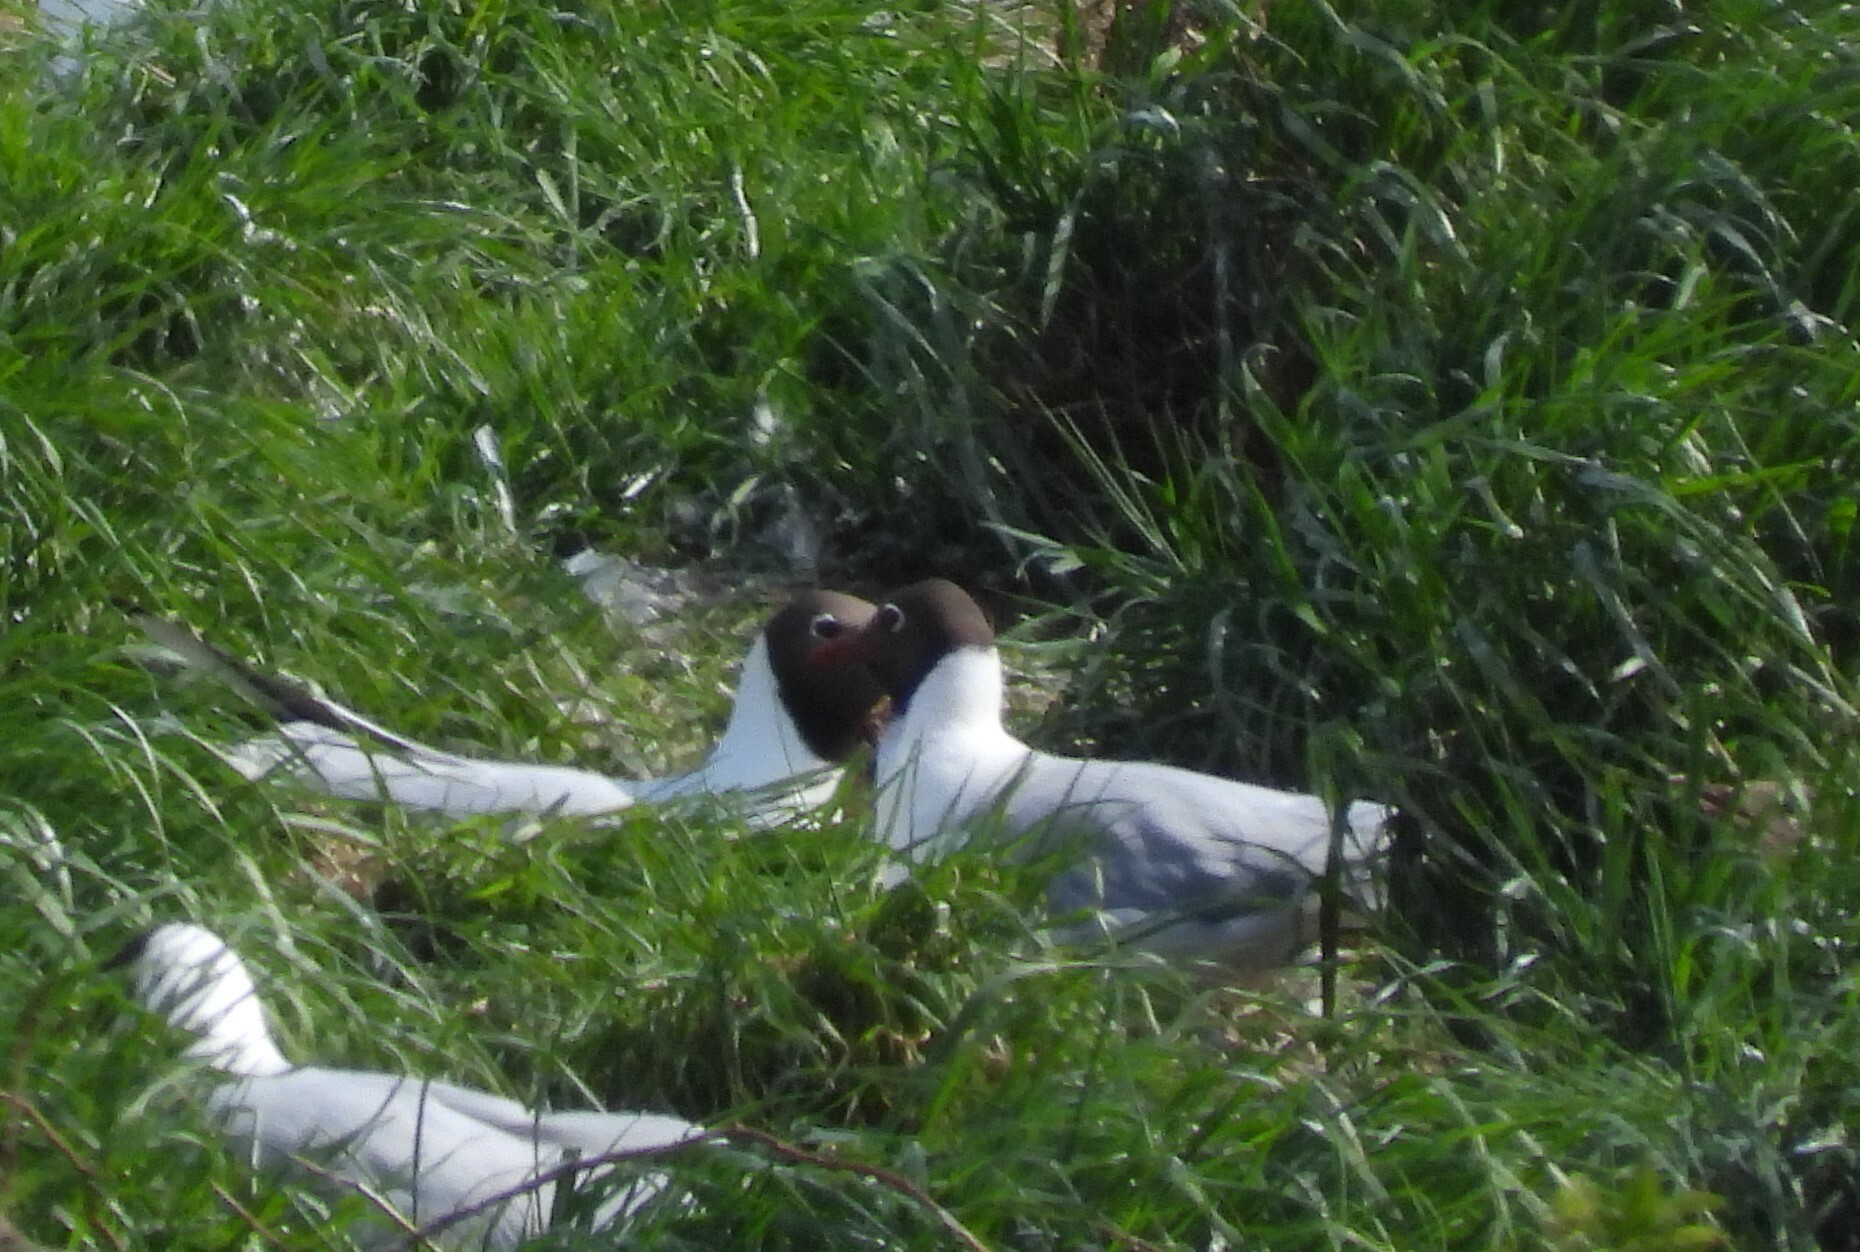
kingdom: Animalia
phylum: Chordata
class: Aves
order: Charadriiformes
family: Laridae
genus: Chroicocephalus
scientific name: Chroicocephalus ridibundus
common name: Black-headed gull
